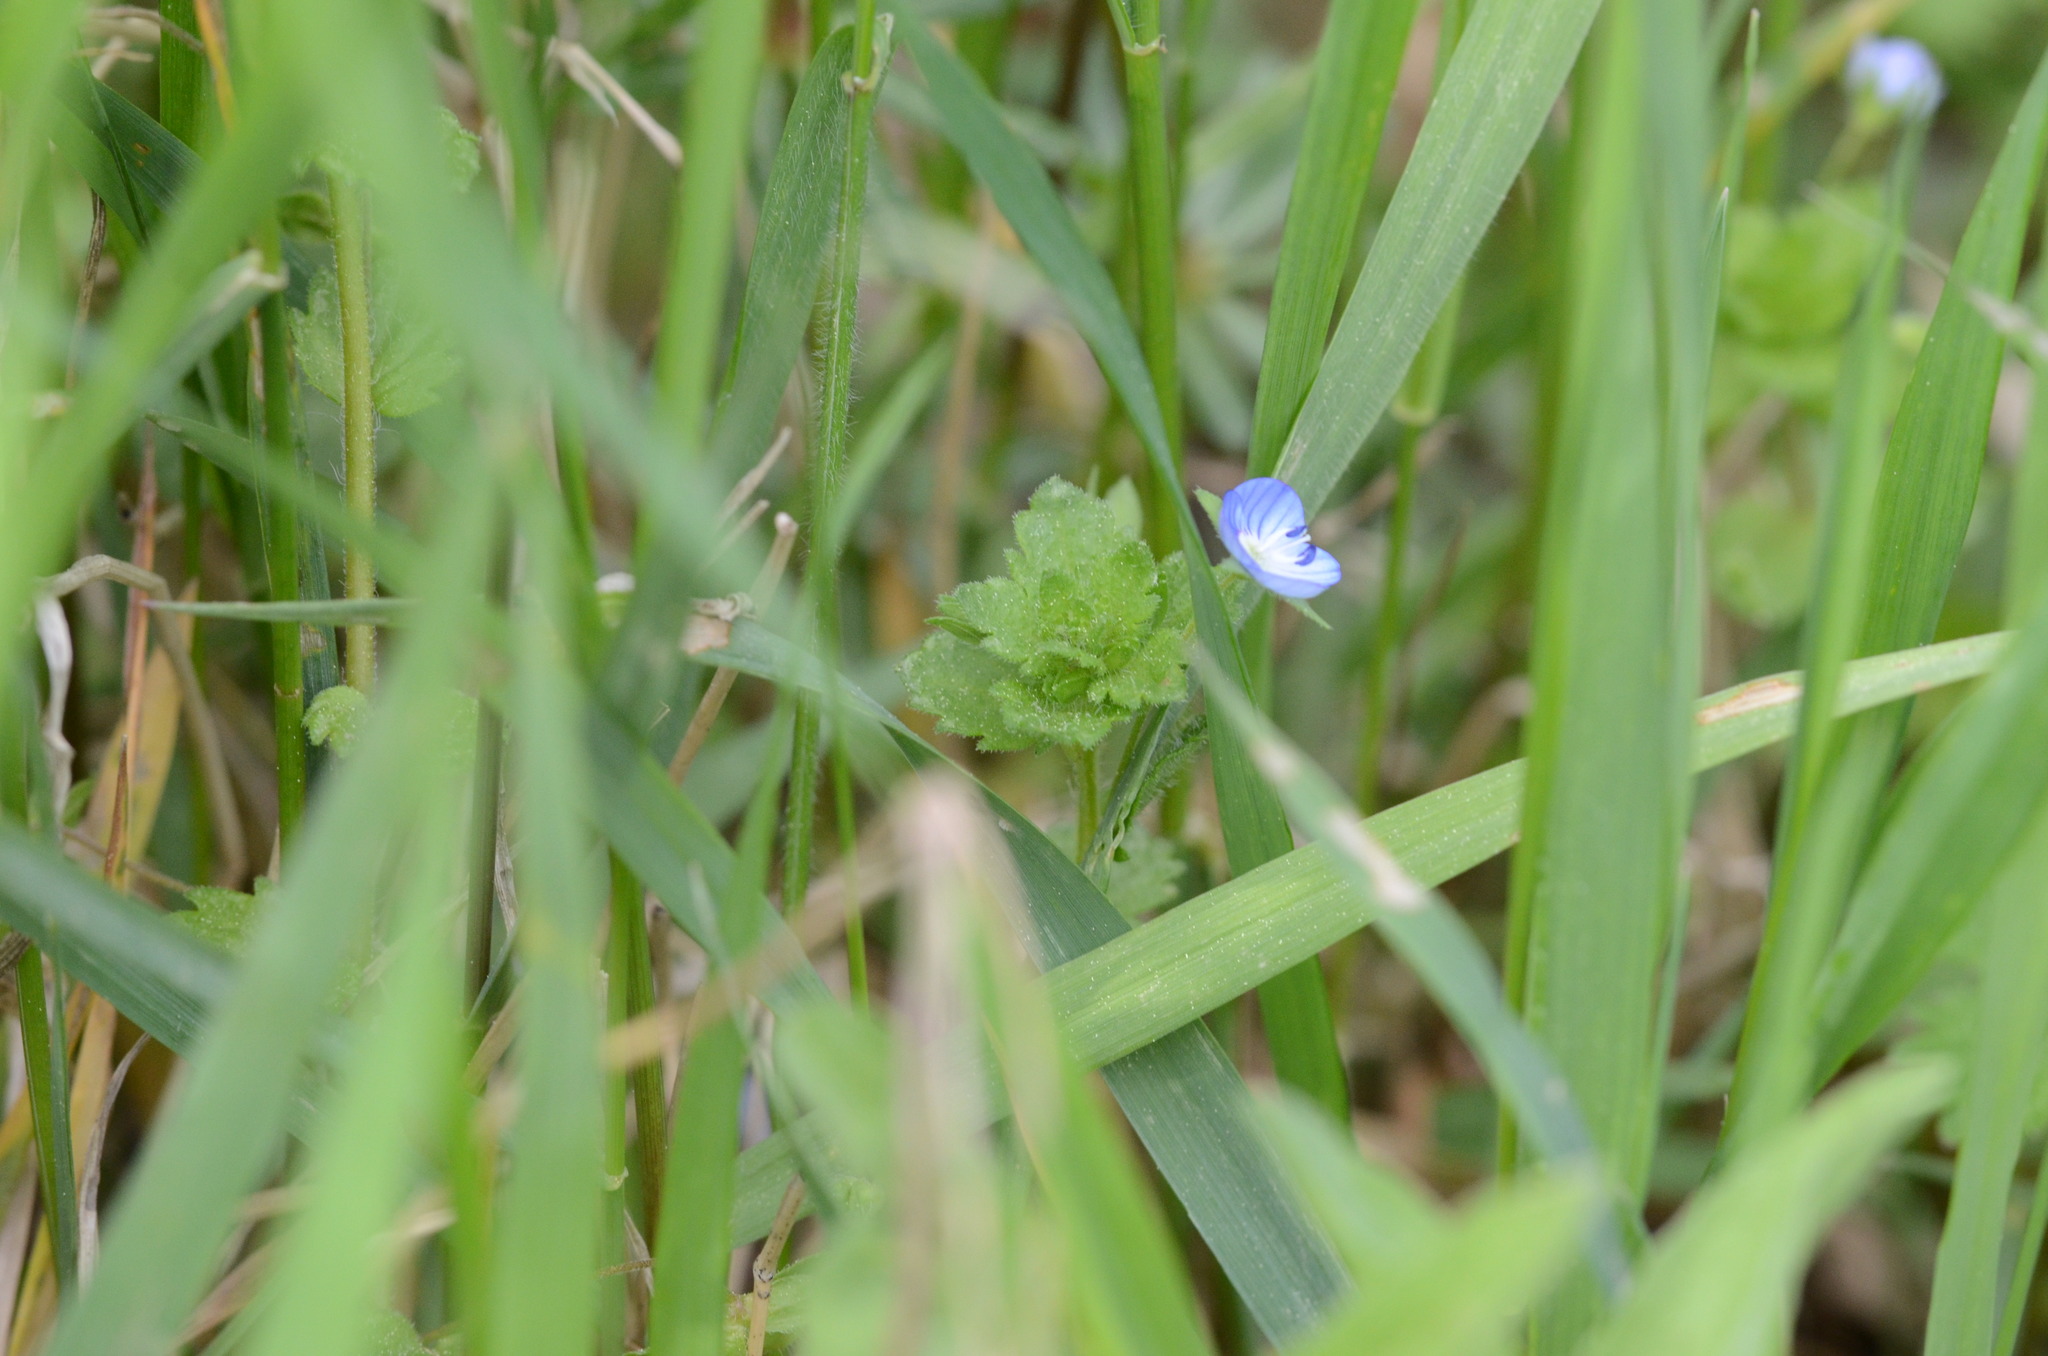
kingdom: Plantae
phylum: Tracheophyta
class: Magnoliopsida
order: Lamiales
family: Plantaginaceae
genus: Veronica
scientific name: Veronica persica
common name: Common field-speedwell
